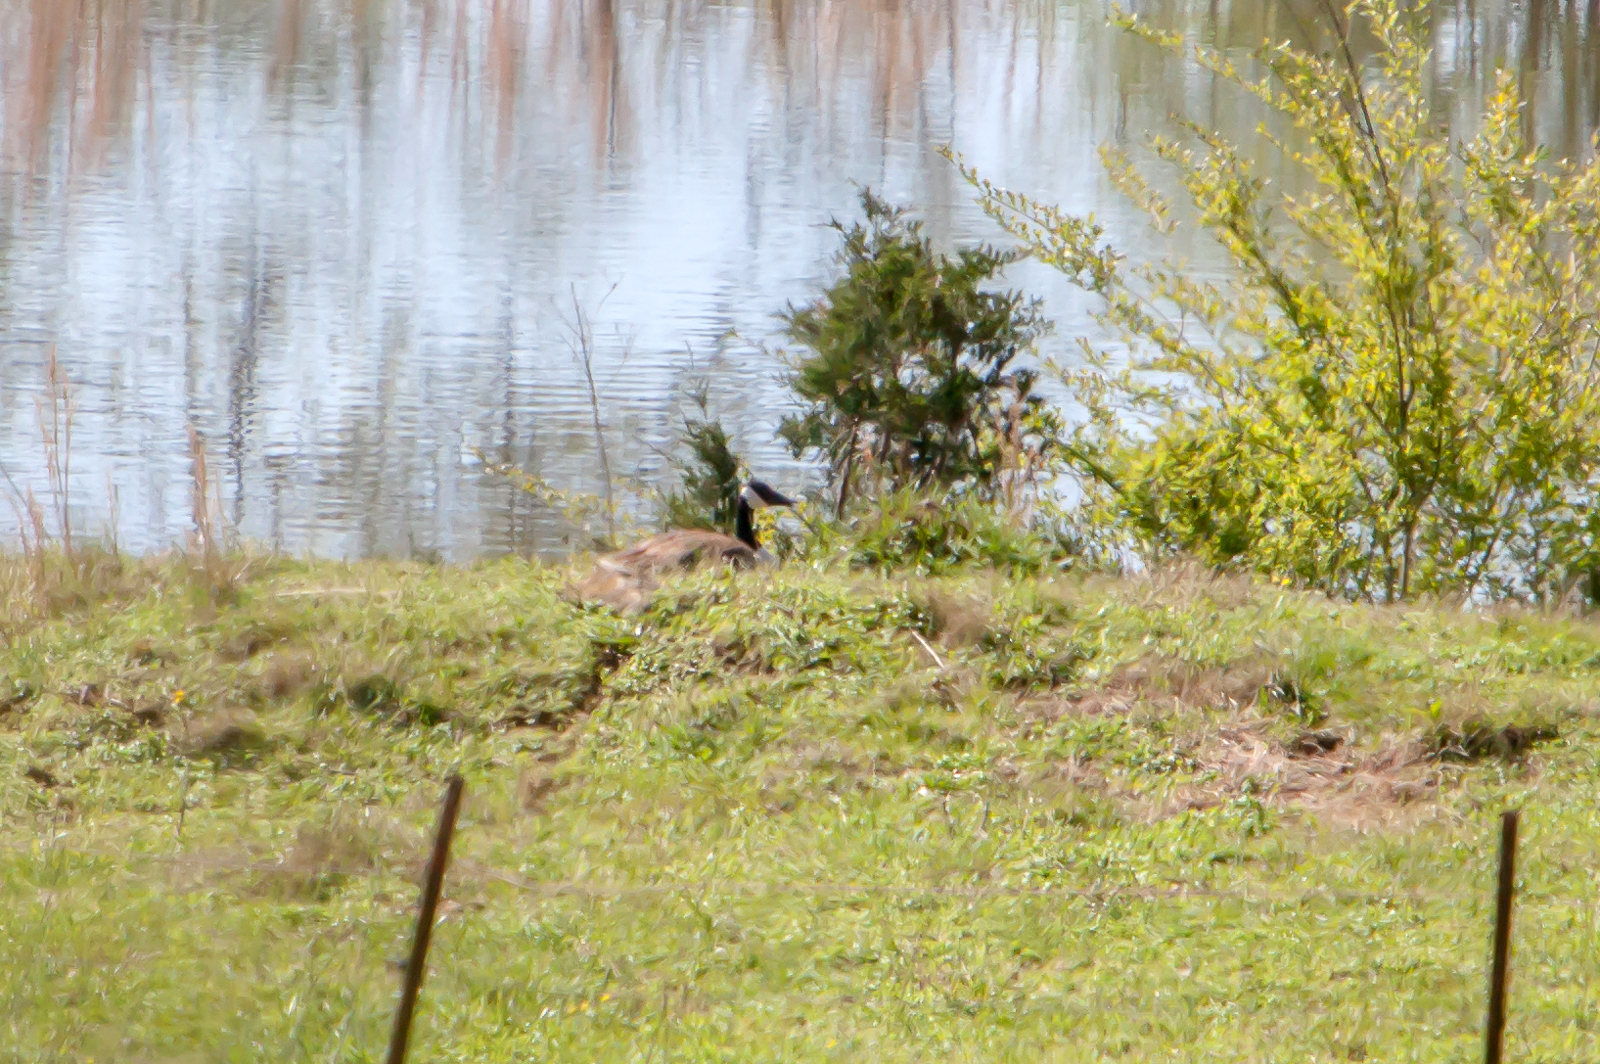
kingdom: Animalia
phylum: Chordata
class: Aves
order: Anseriformes
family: Anatidae
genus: Branta
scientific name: Branta canadensis
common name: Canada goose
